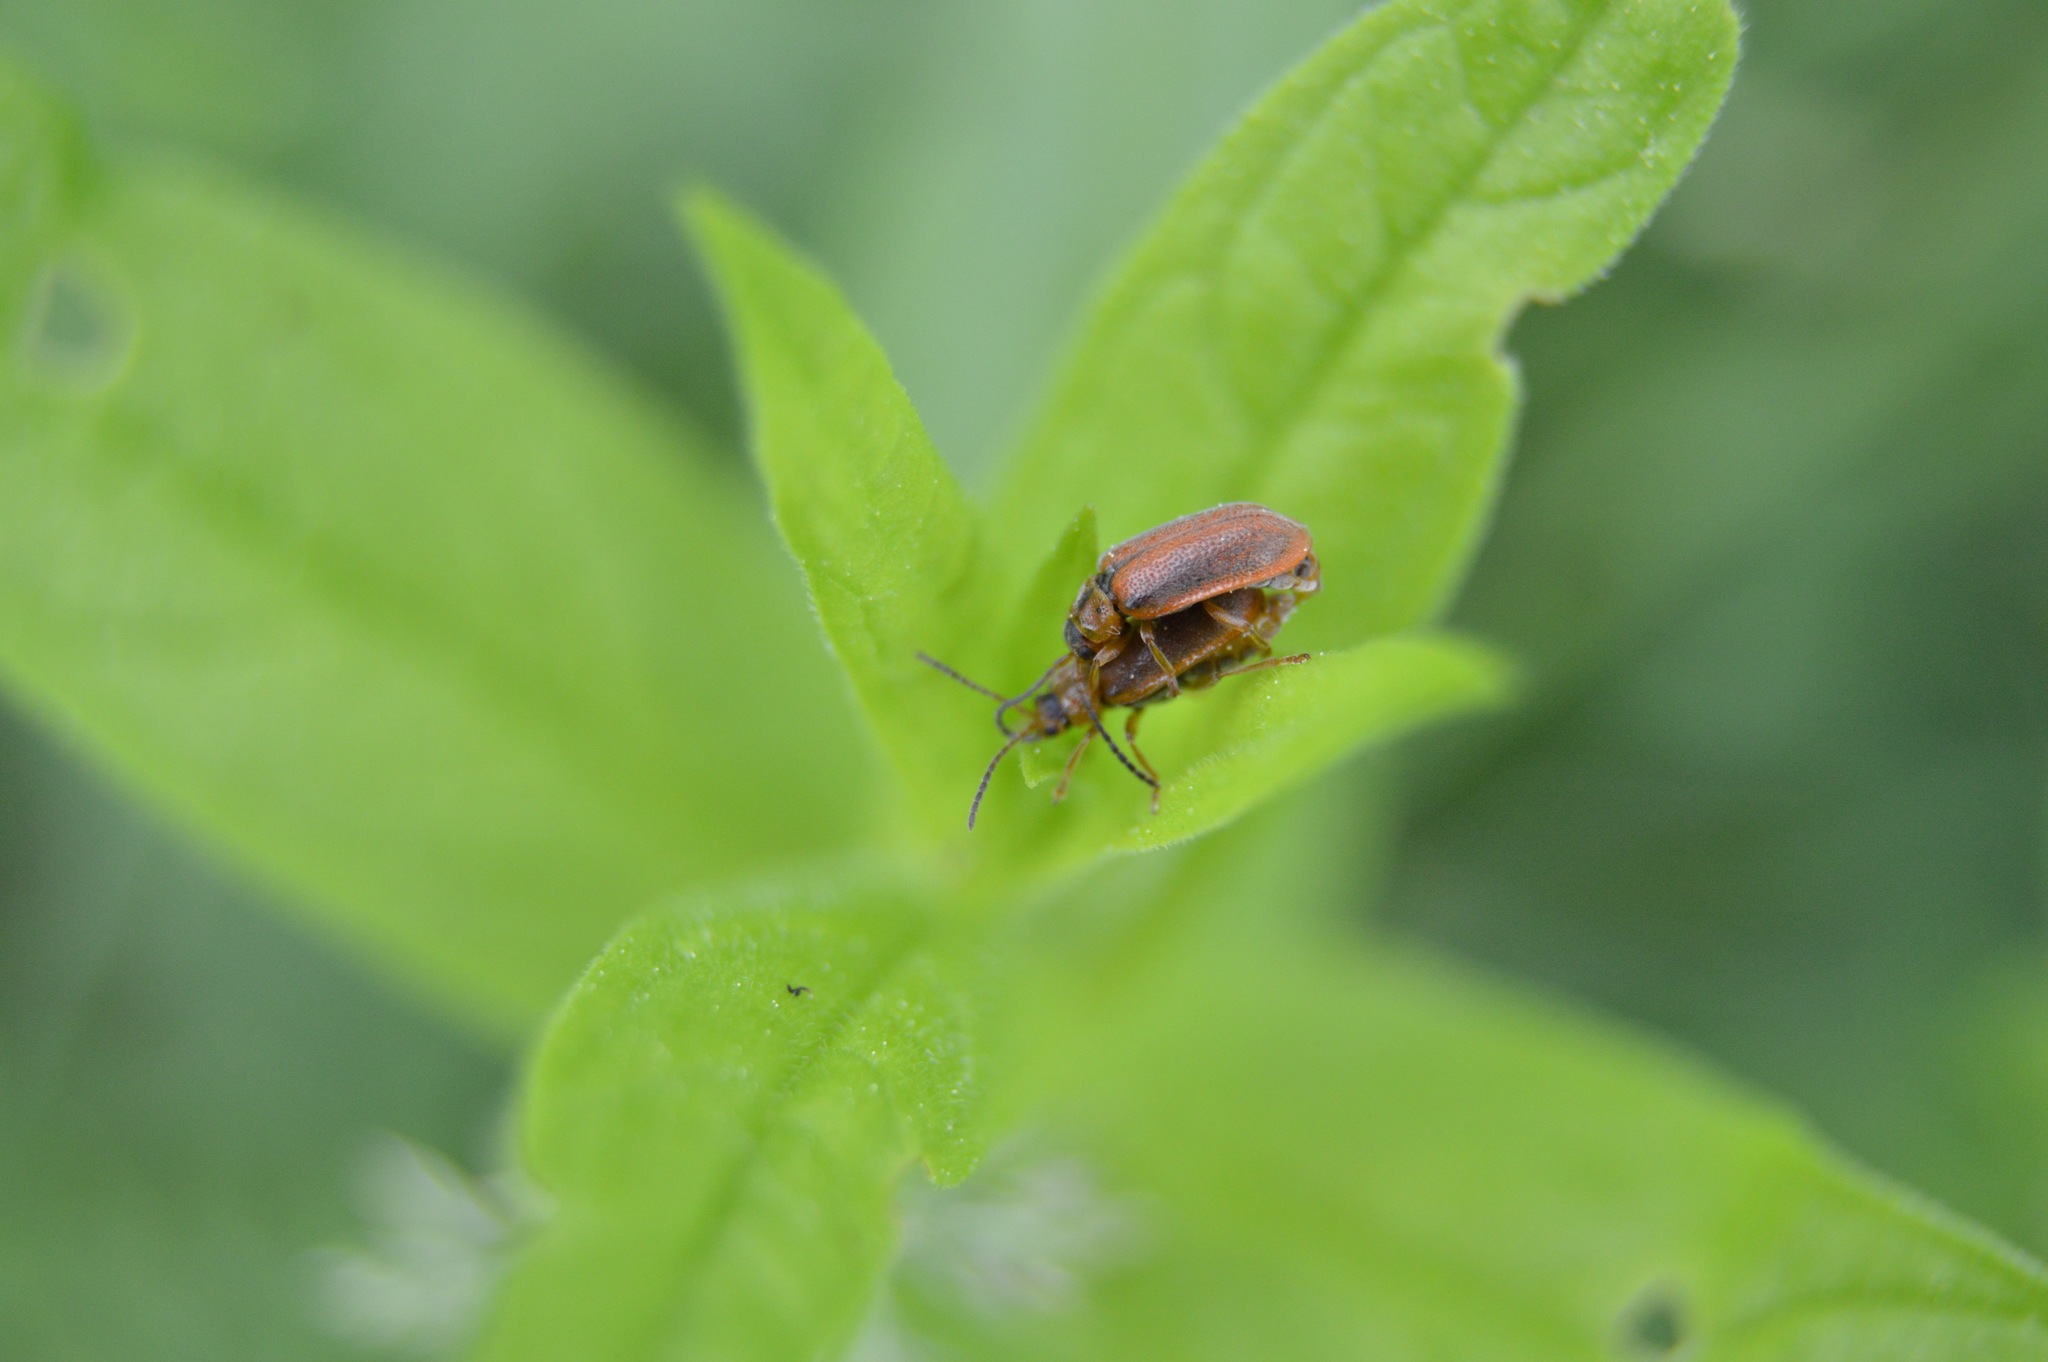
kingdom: Animalia
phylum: Arthropoda
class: Insecta
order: Coleoptera
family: Chrysomelidae
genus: Neogalerucella
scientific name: Neogalerucella calmariensis
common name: Black-margined loosestrife beetle
